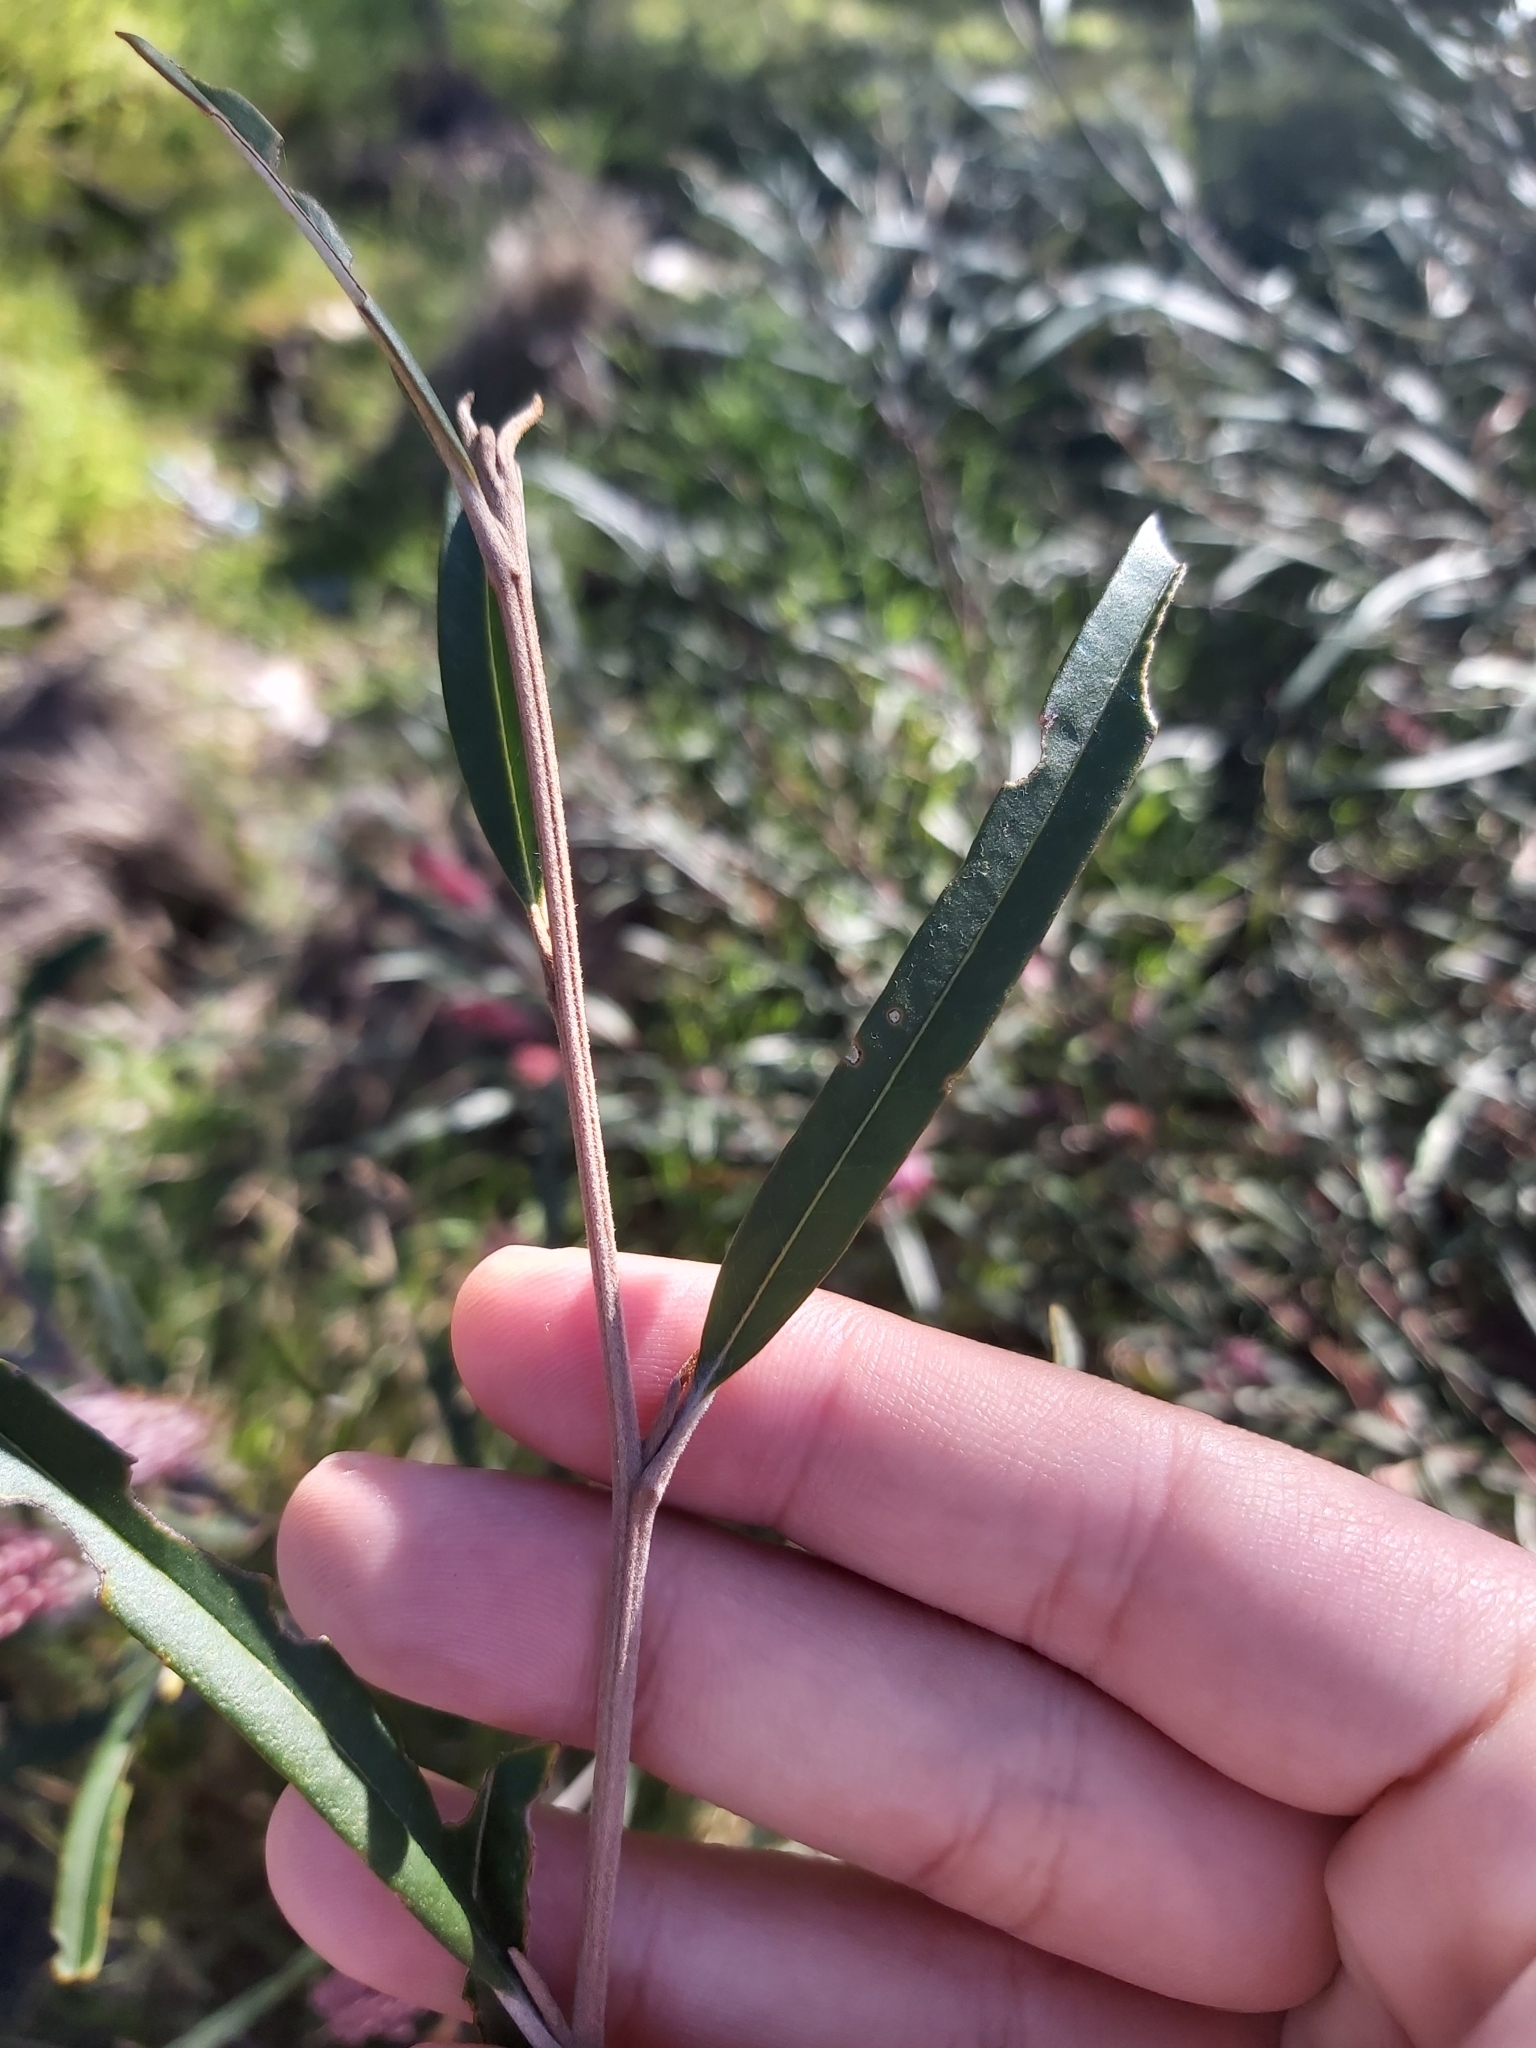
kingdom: Plantae
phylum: Tracheophyta
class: Magnoliopsida
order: Proteales
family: Proteaceae
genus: Grevillea
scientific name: Grevillea longifolia
